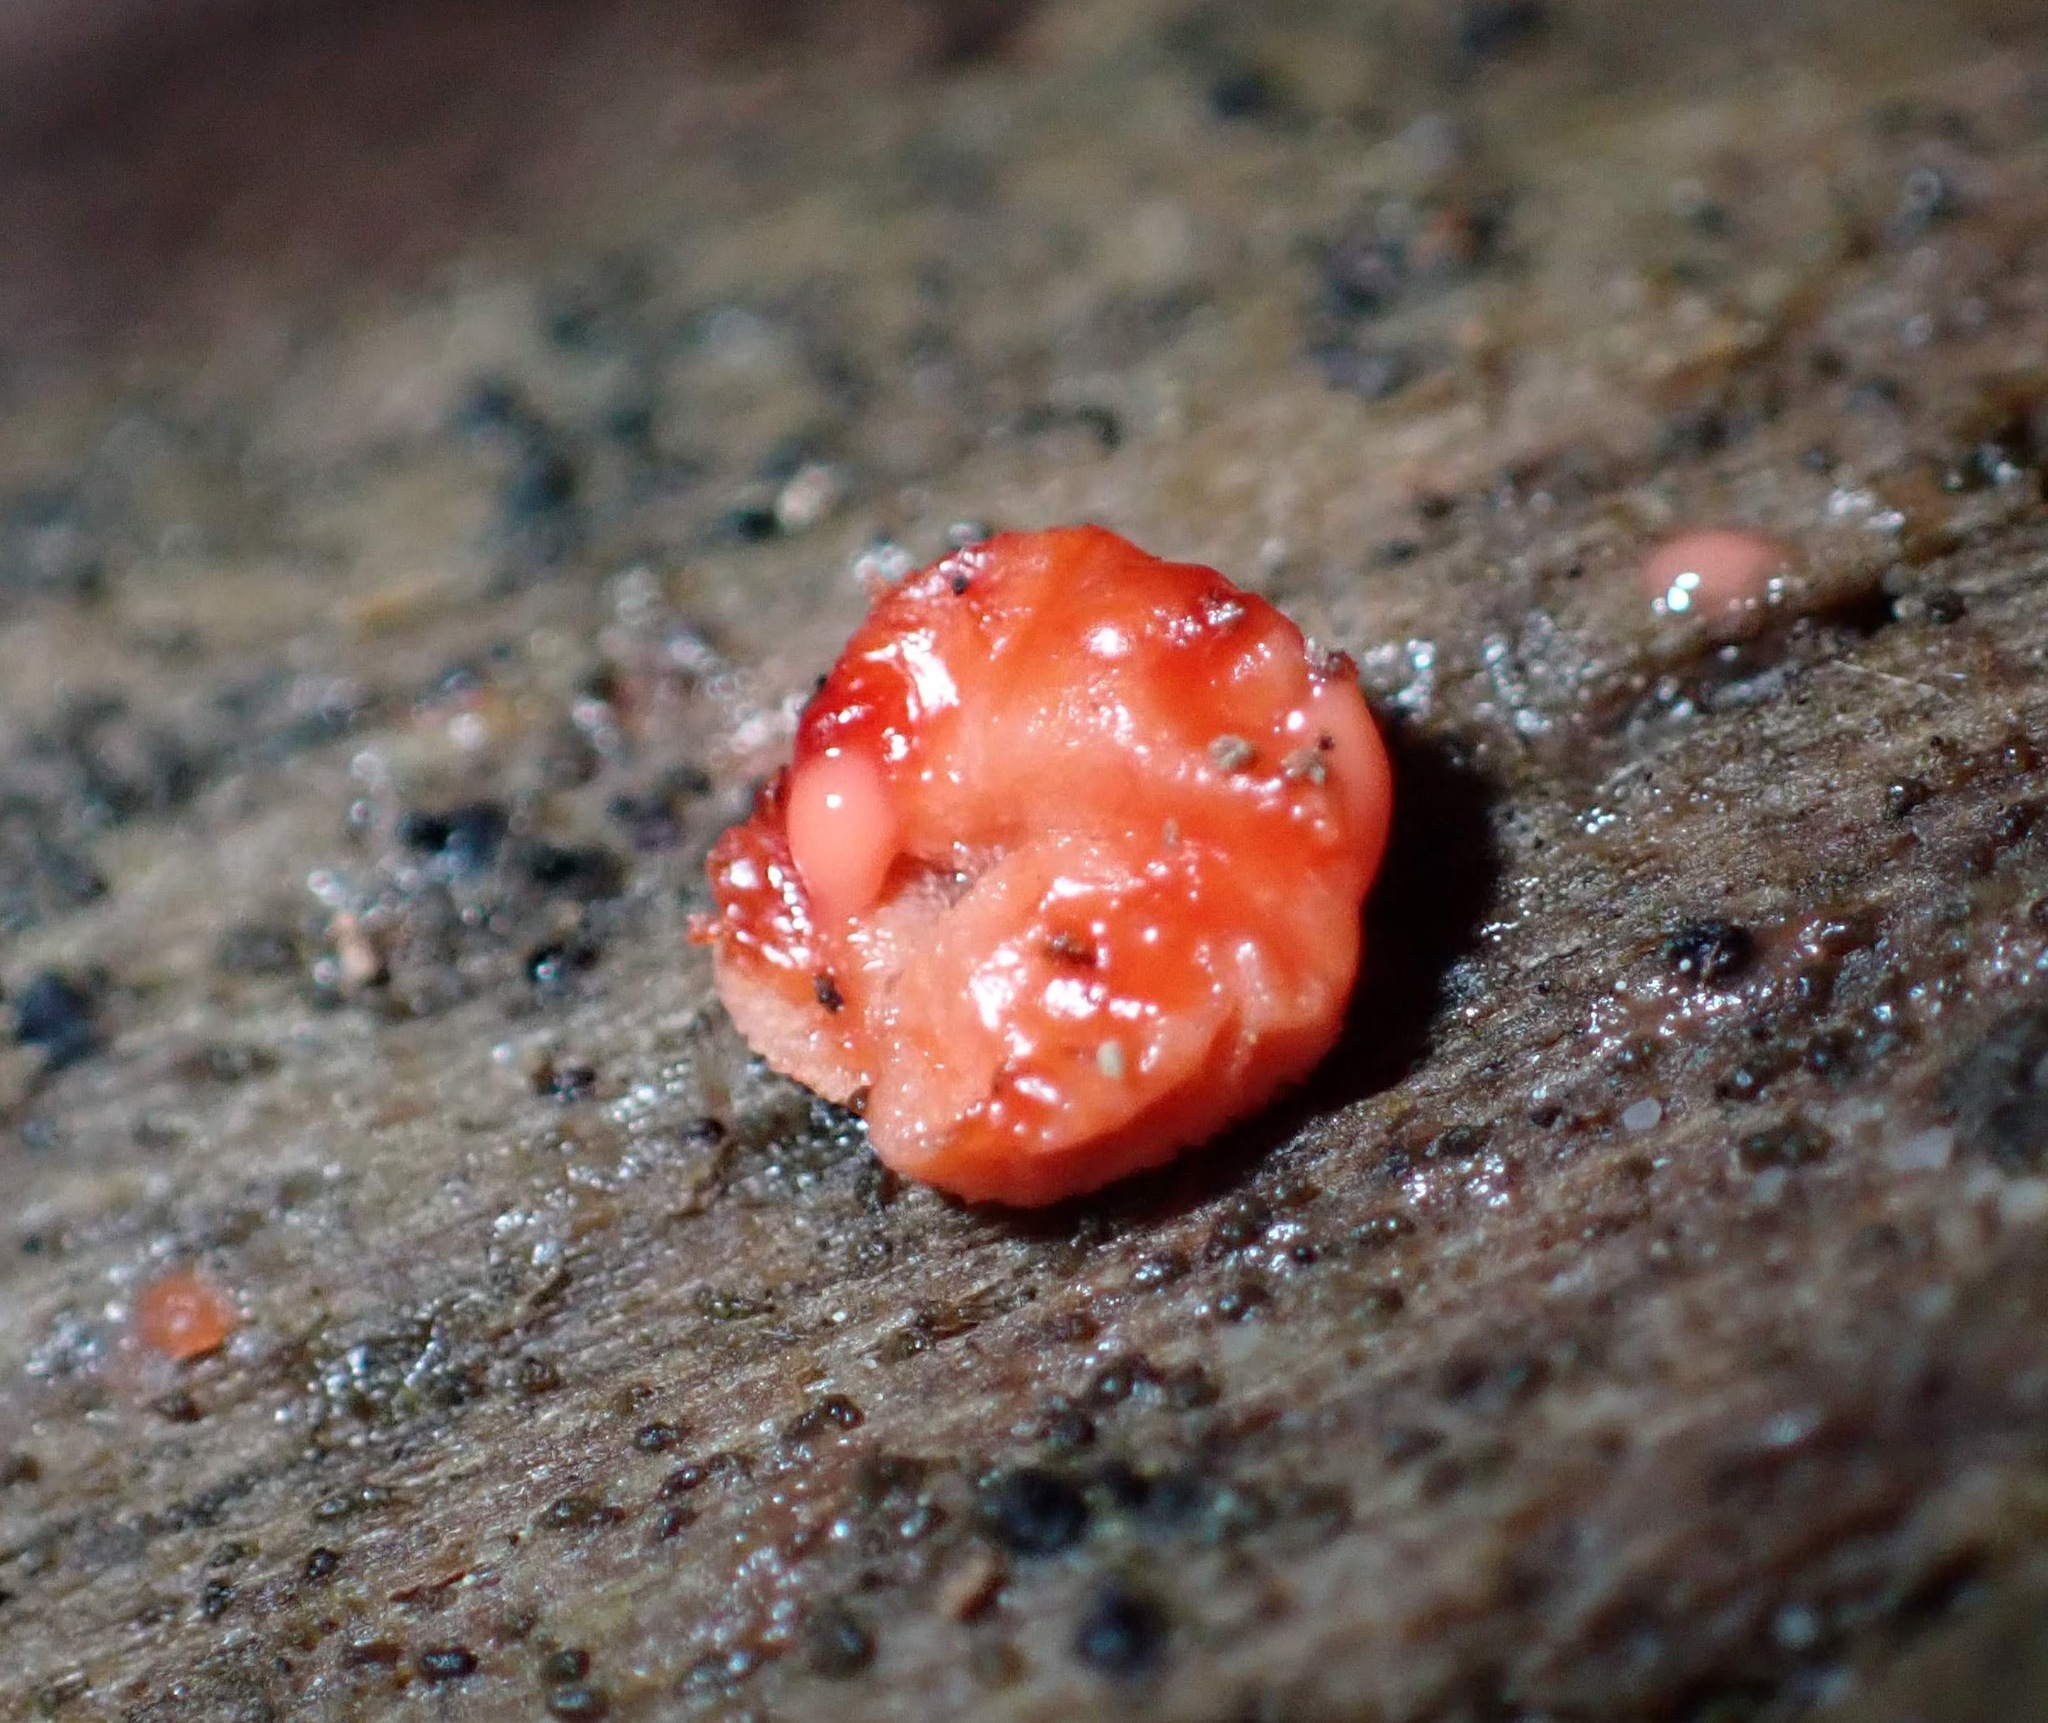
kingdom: Fungi
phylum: Basidiomycota
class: Agaricomycetes
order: Cantharellales
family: Tulasnellaceae
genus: Tulasnella
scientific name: Tulasnella aurantiaca
